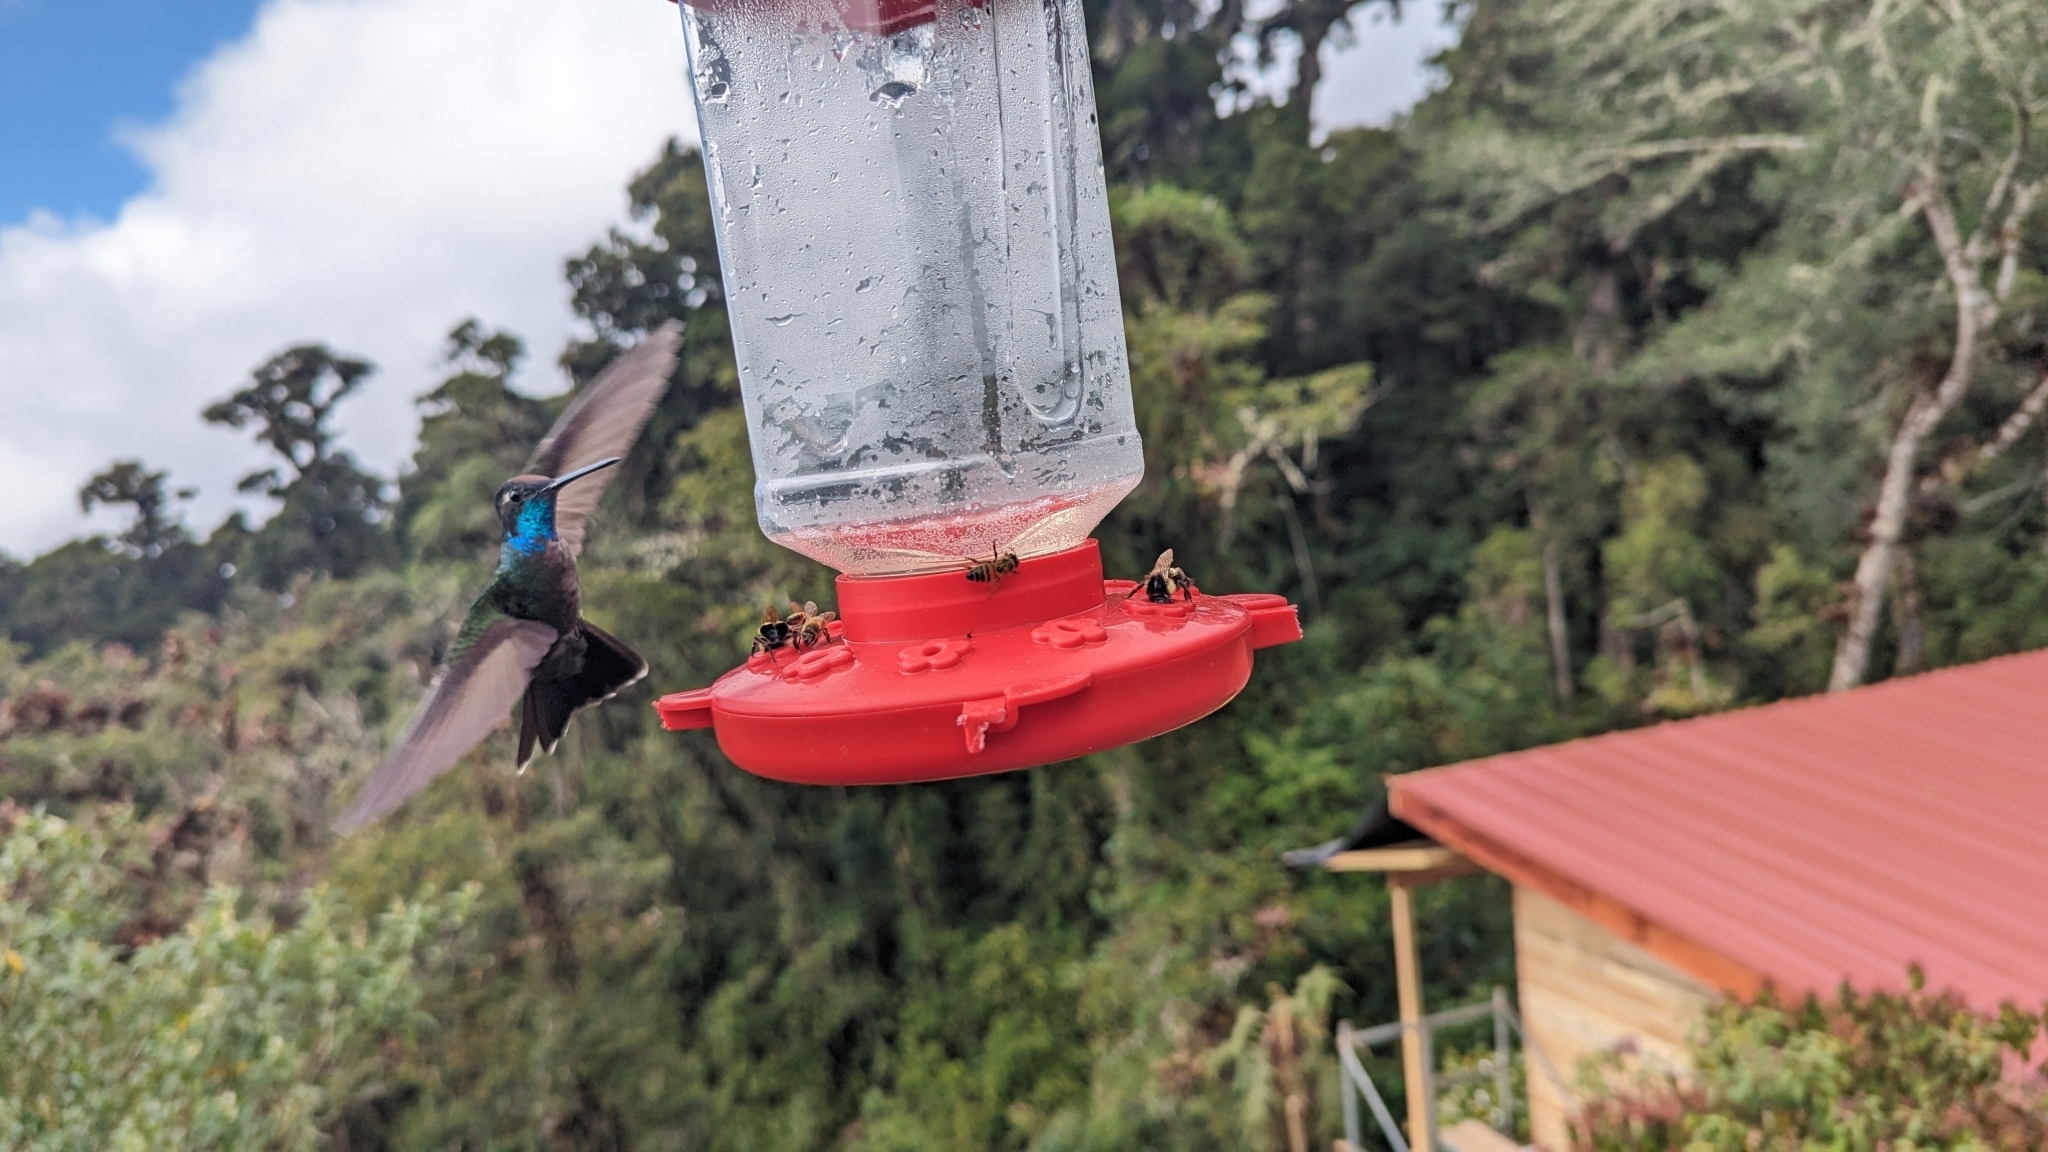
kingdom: Animalia
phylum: Chordata
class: Aves
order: Apodiformes
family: Trochilidae
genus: Eugenes
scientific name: Eugenes spectabilis
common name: Talamanca hummingbird
